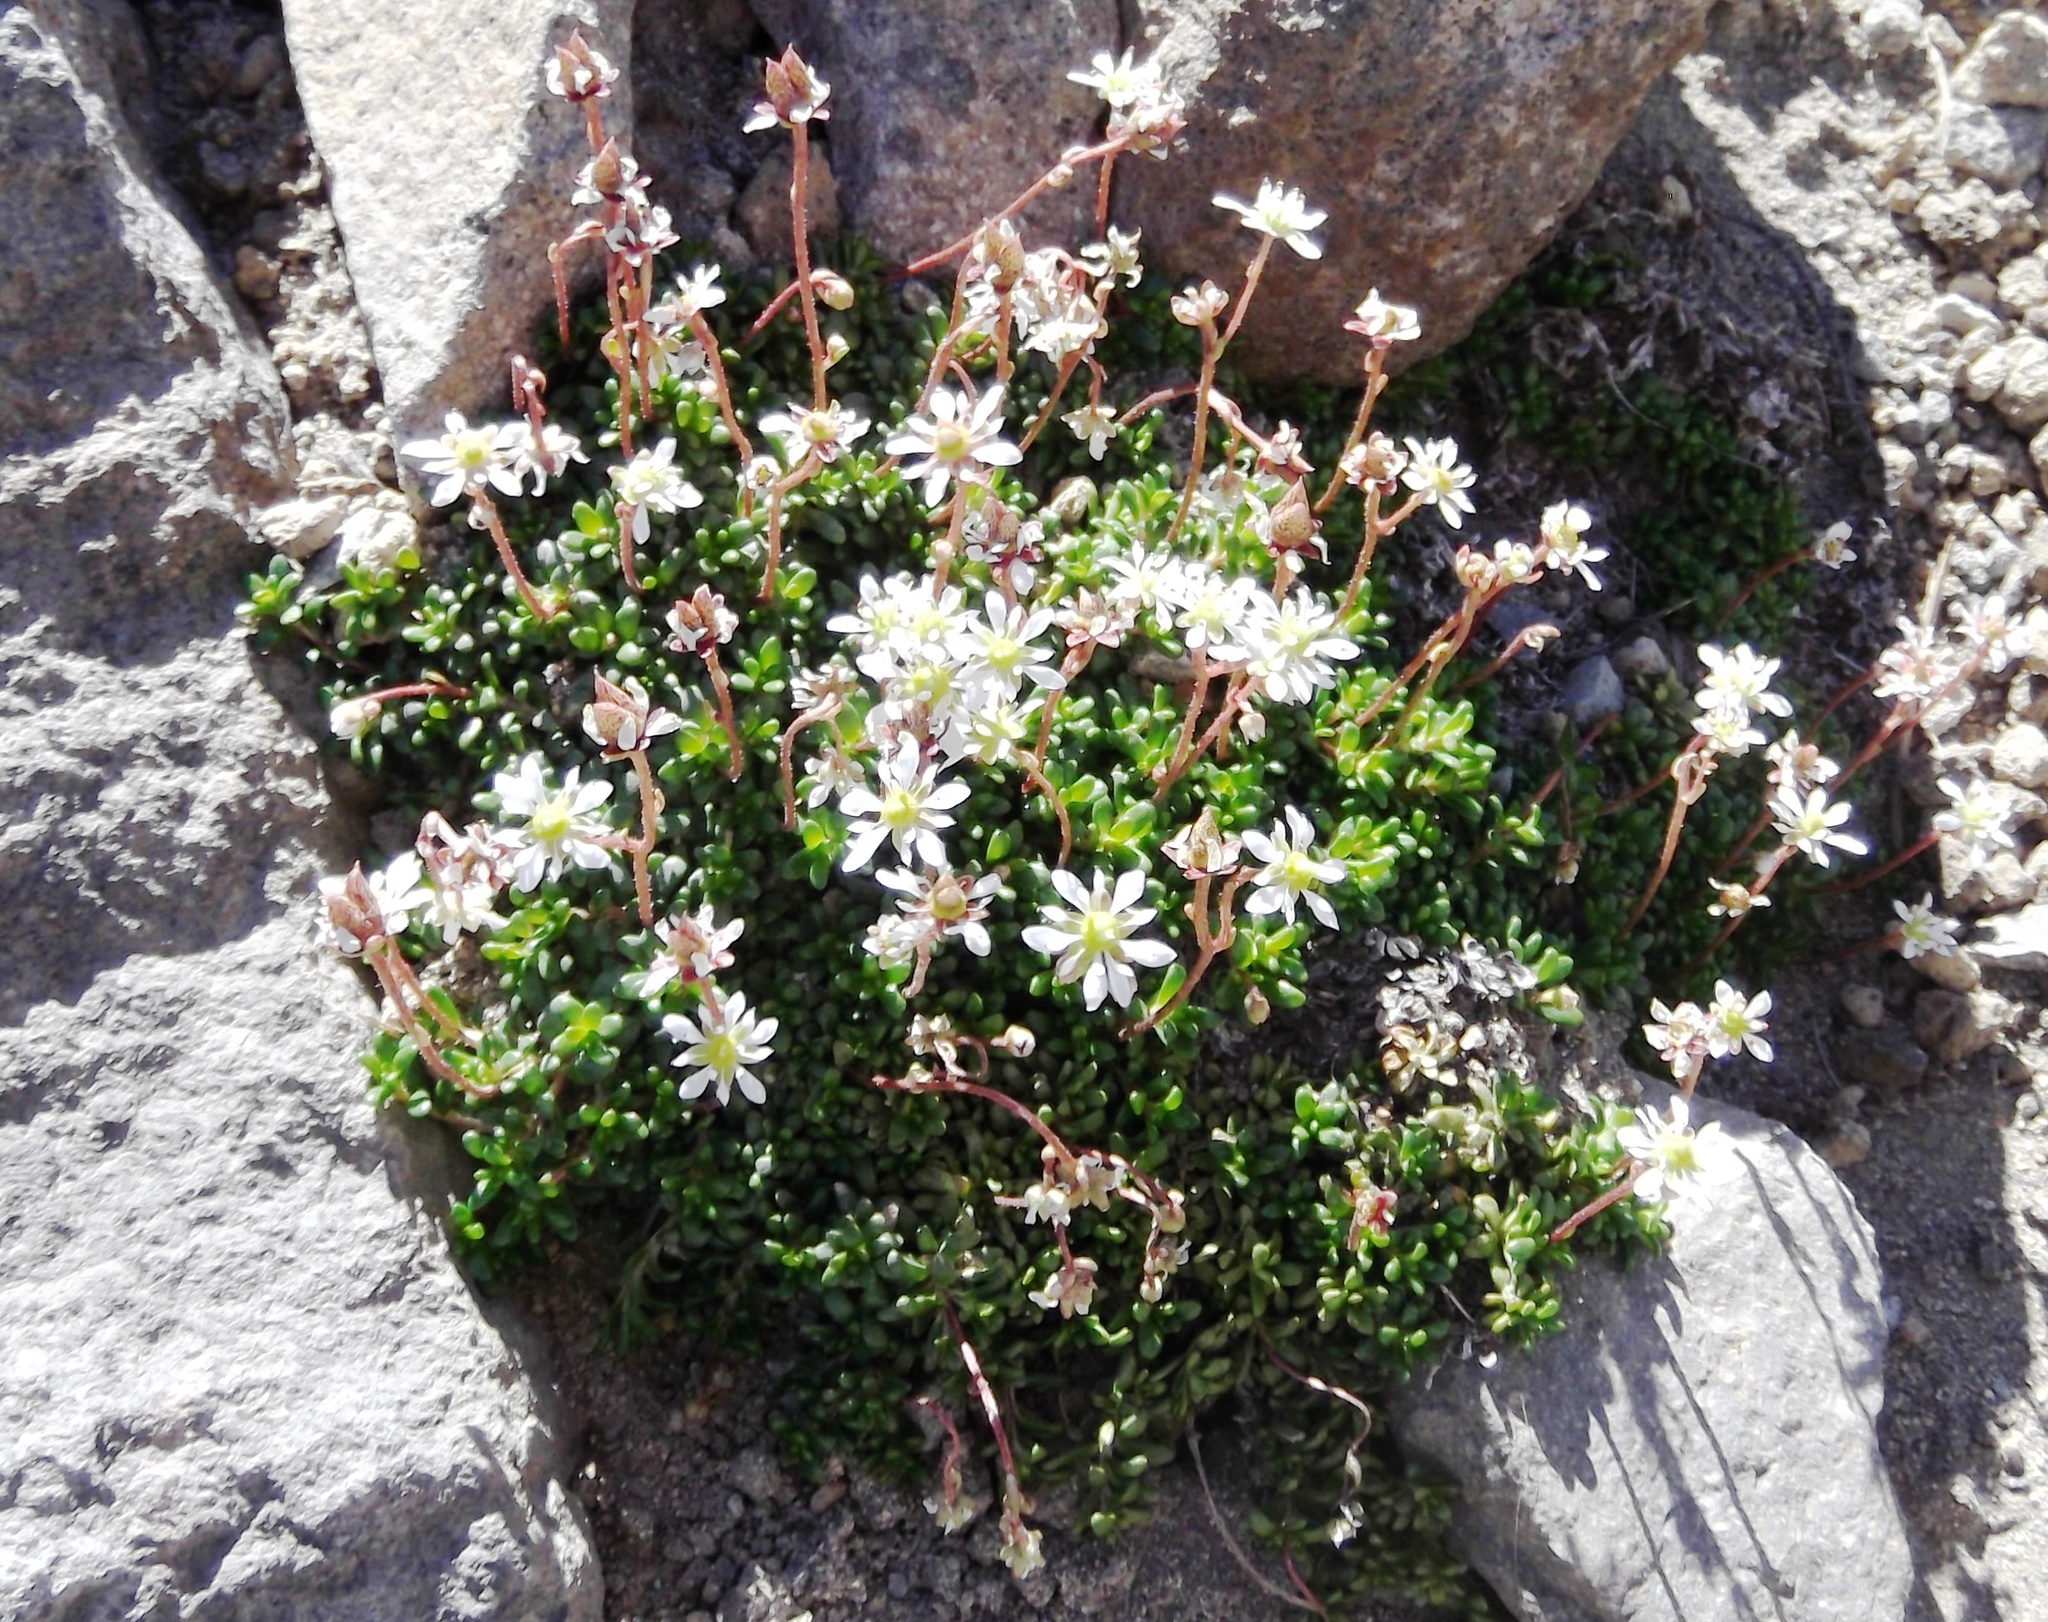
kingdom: Plantae
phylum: Tracheophyta
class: Magnoliopsida
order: Saxifragales
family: Saxifragaceae
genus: Micranthes
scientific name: Micranthes tolmiei
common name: Tolmie's saxifrage
